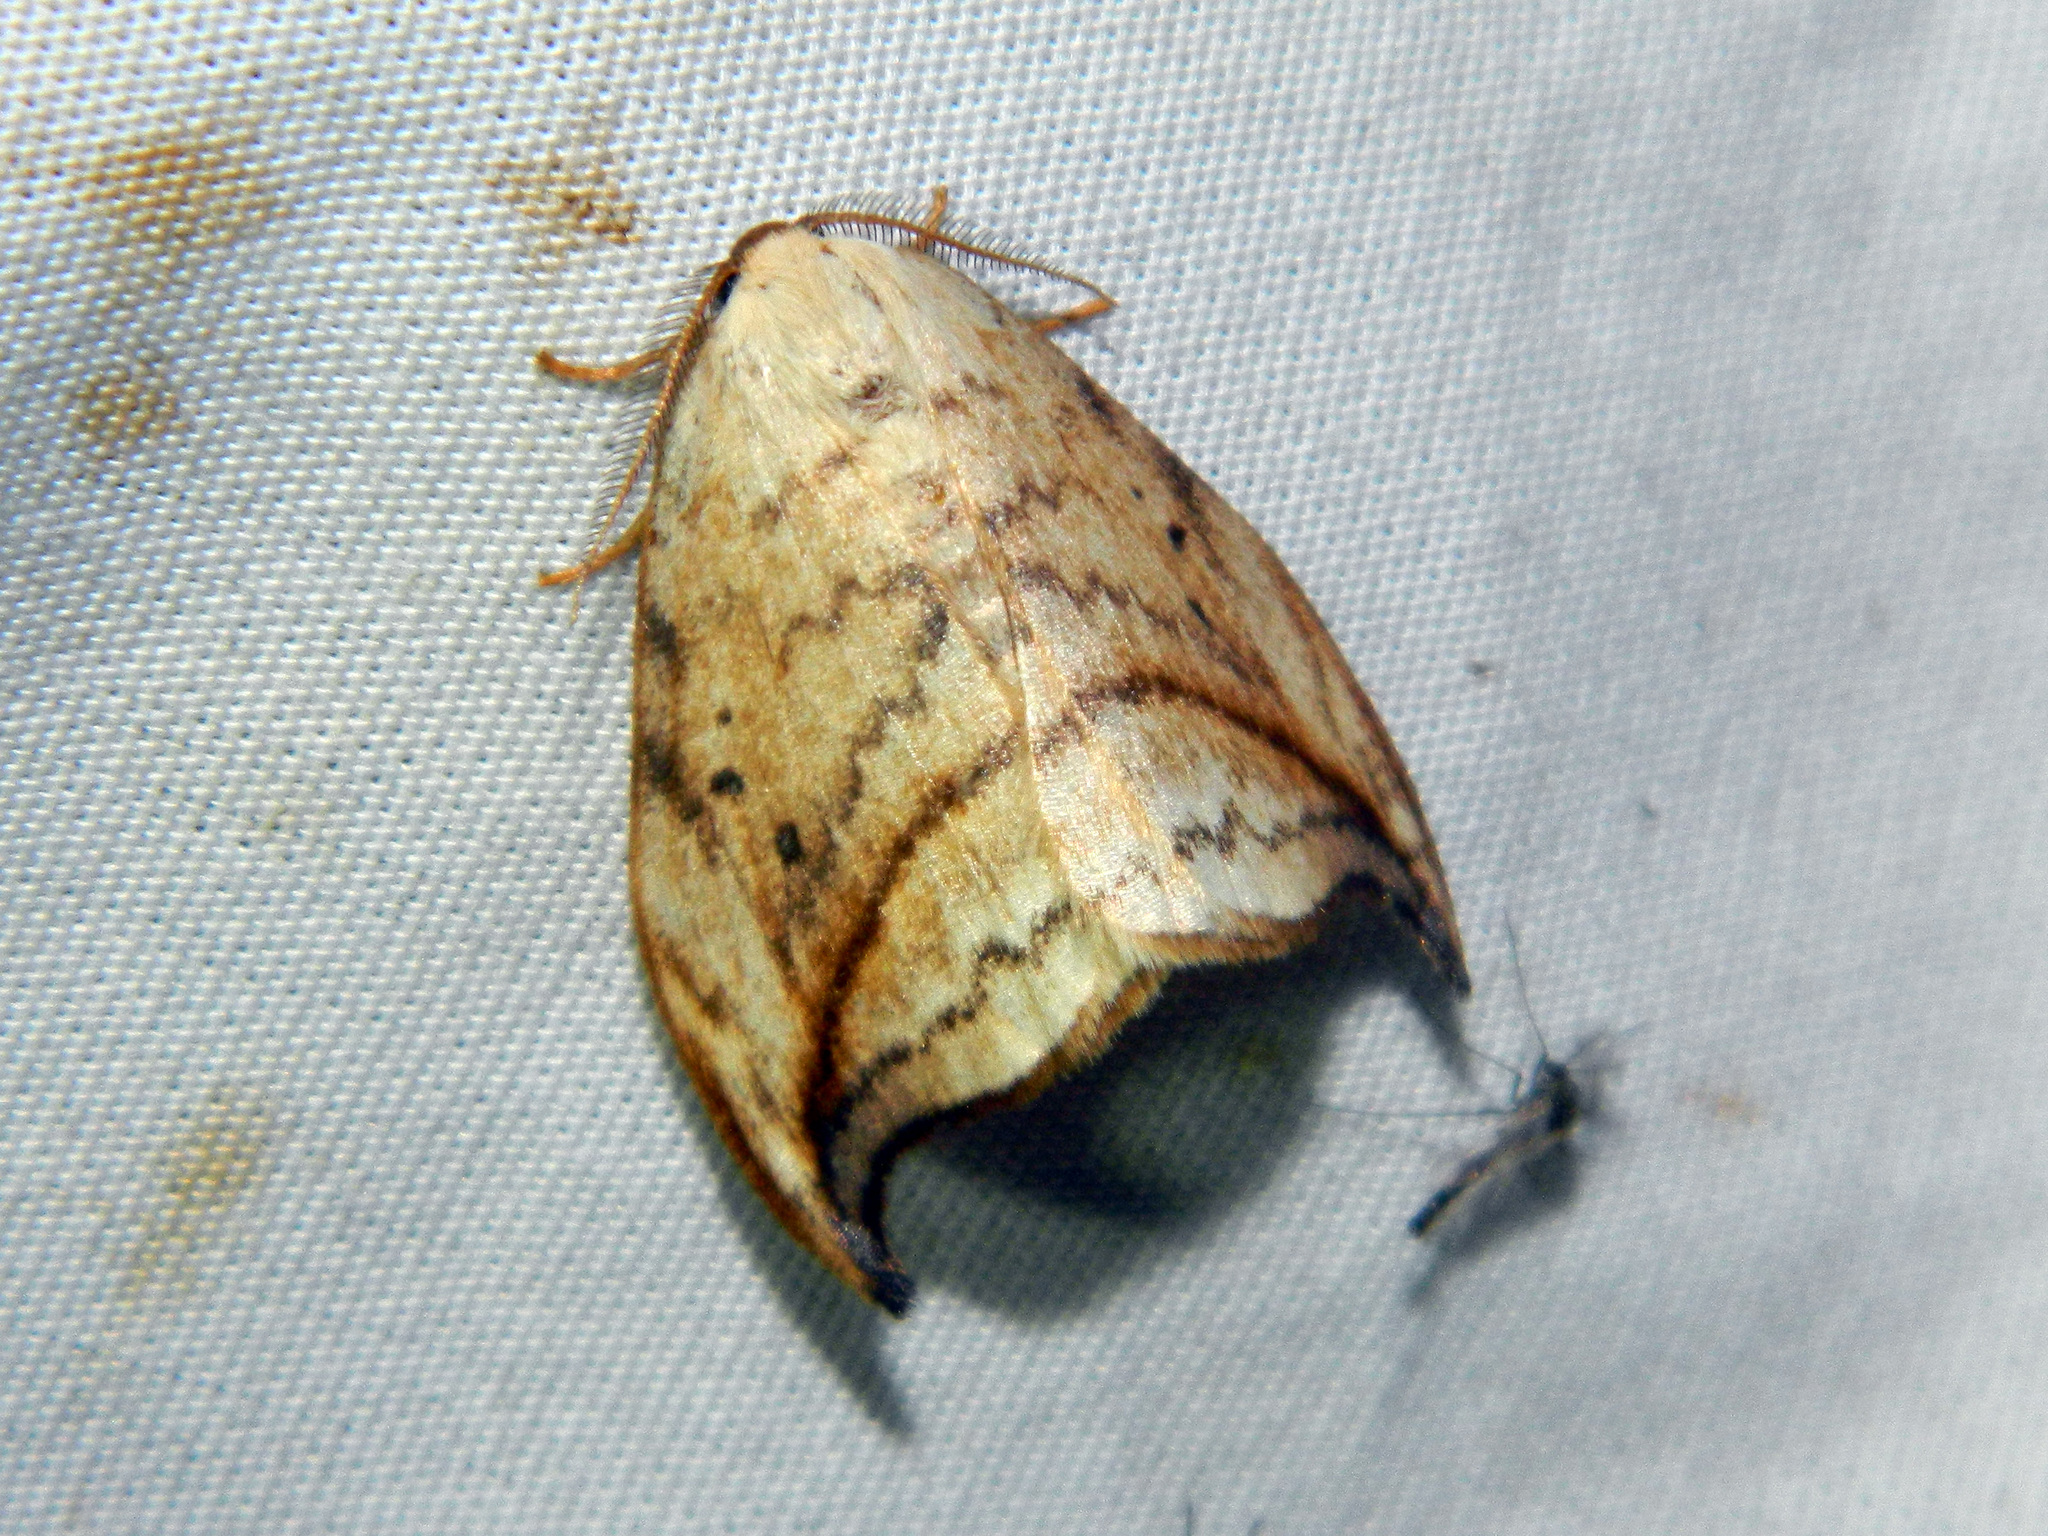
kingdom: Animalia
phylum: Arthropoda
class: Insecta
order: Lepidoptera
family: Drepanidae
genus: Drepana
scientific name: Drepana arcuata
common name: Arched hooktip moth
